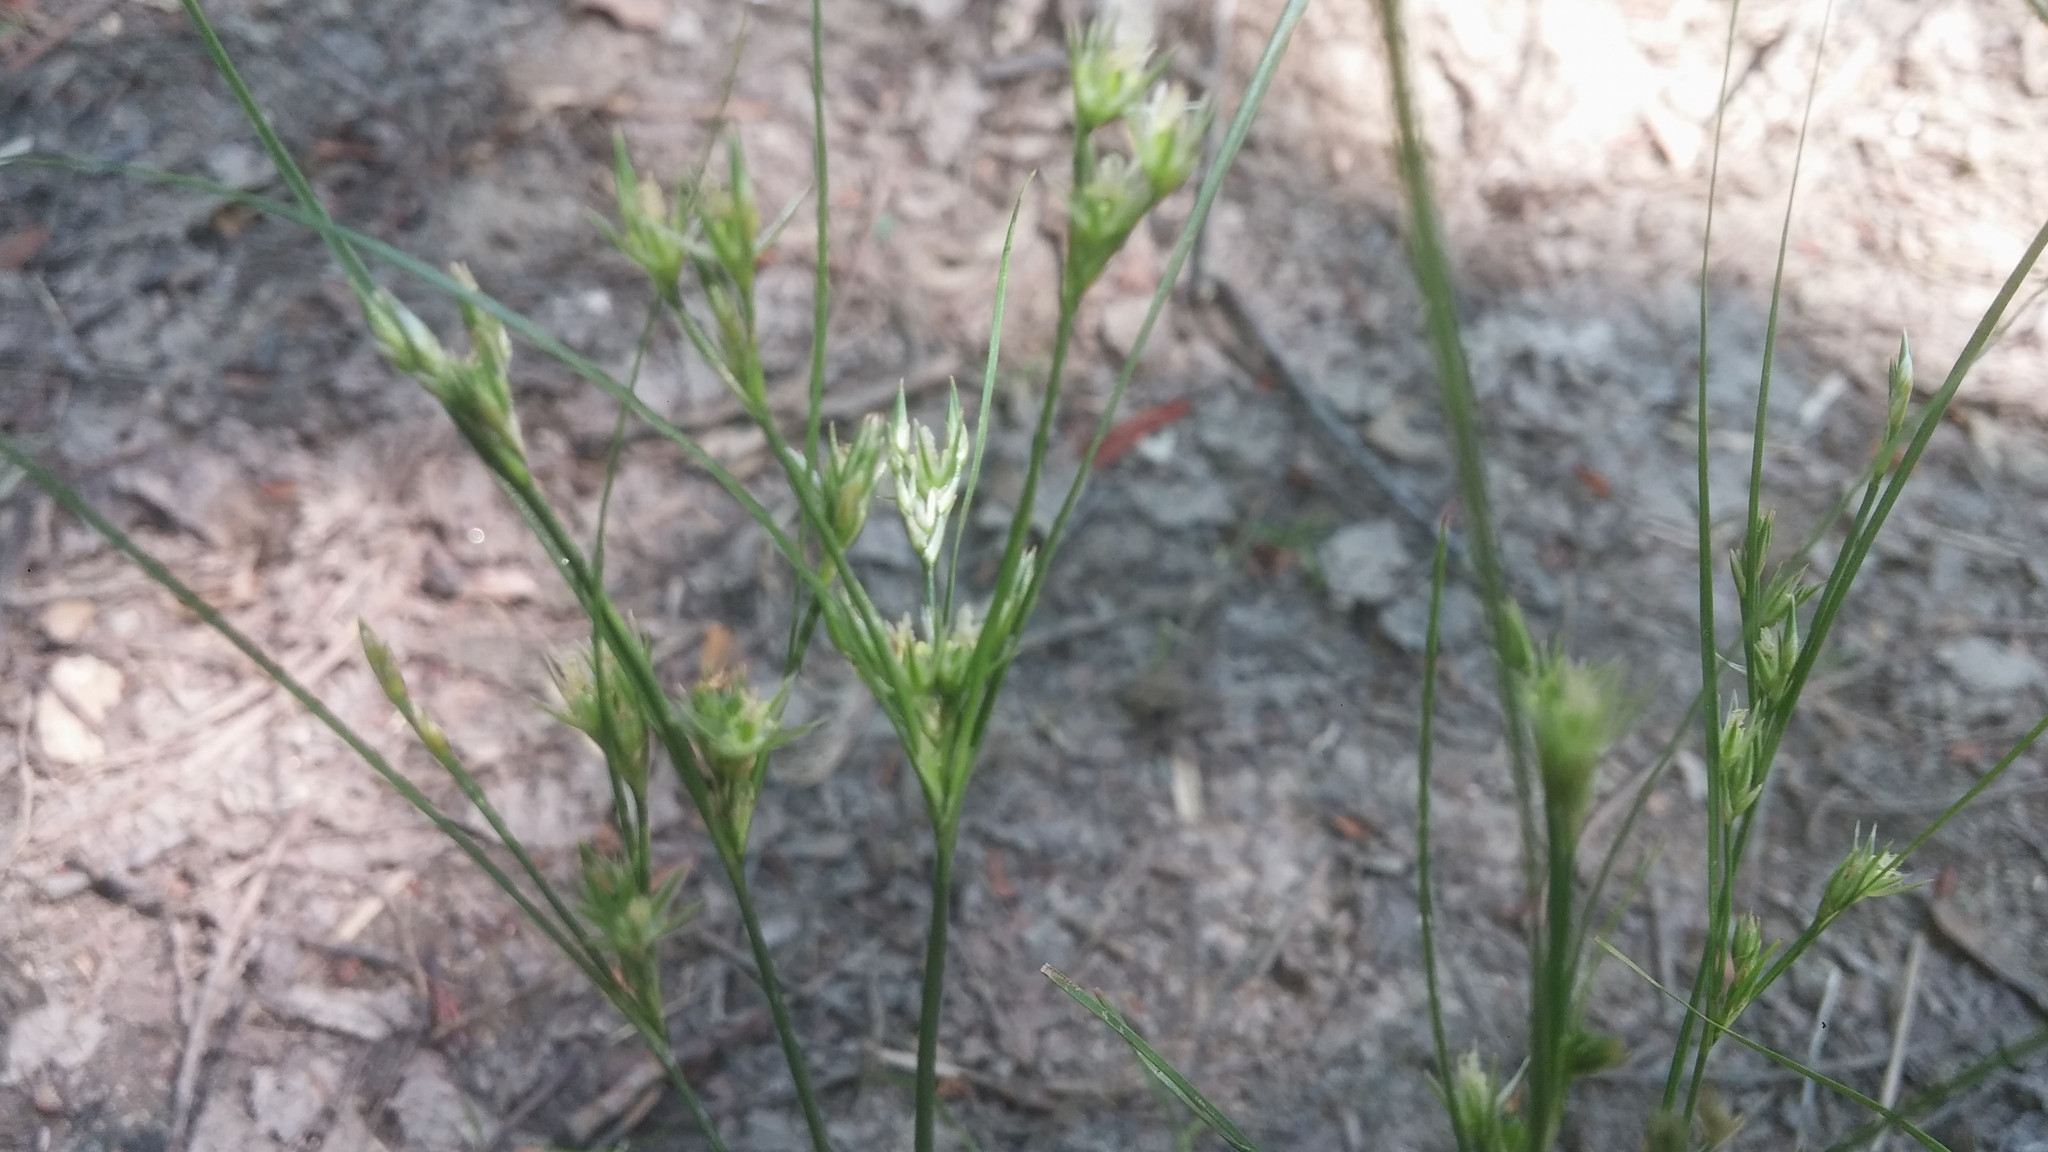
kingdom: Plantae
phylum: Tracheophyta
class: Liliopsida
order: Poales
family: Juncaceae
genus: Juncus
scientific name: Juncus tenuis
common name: Slender rush
